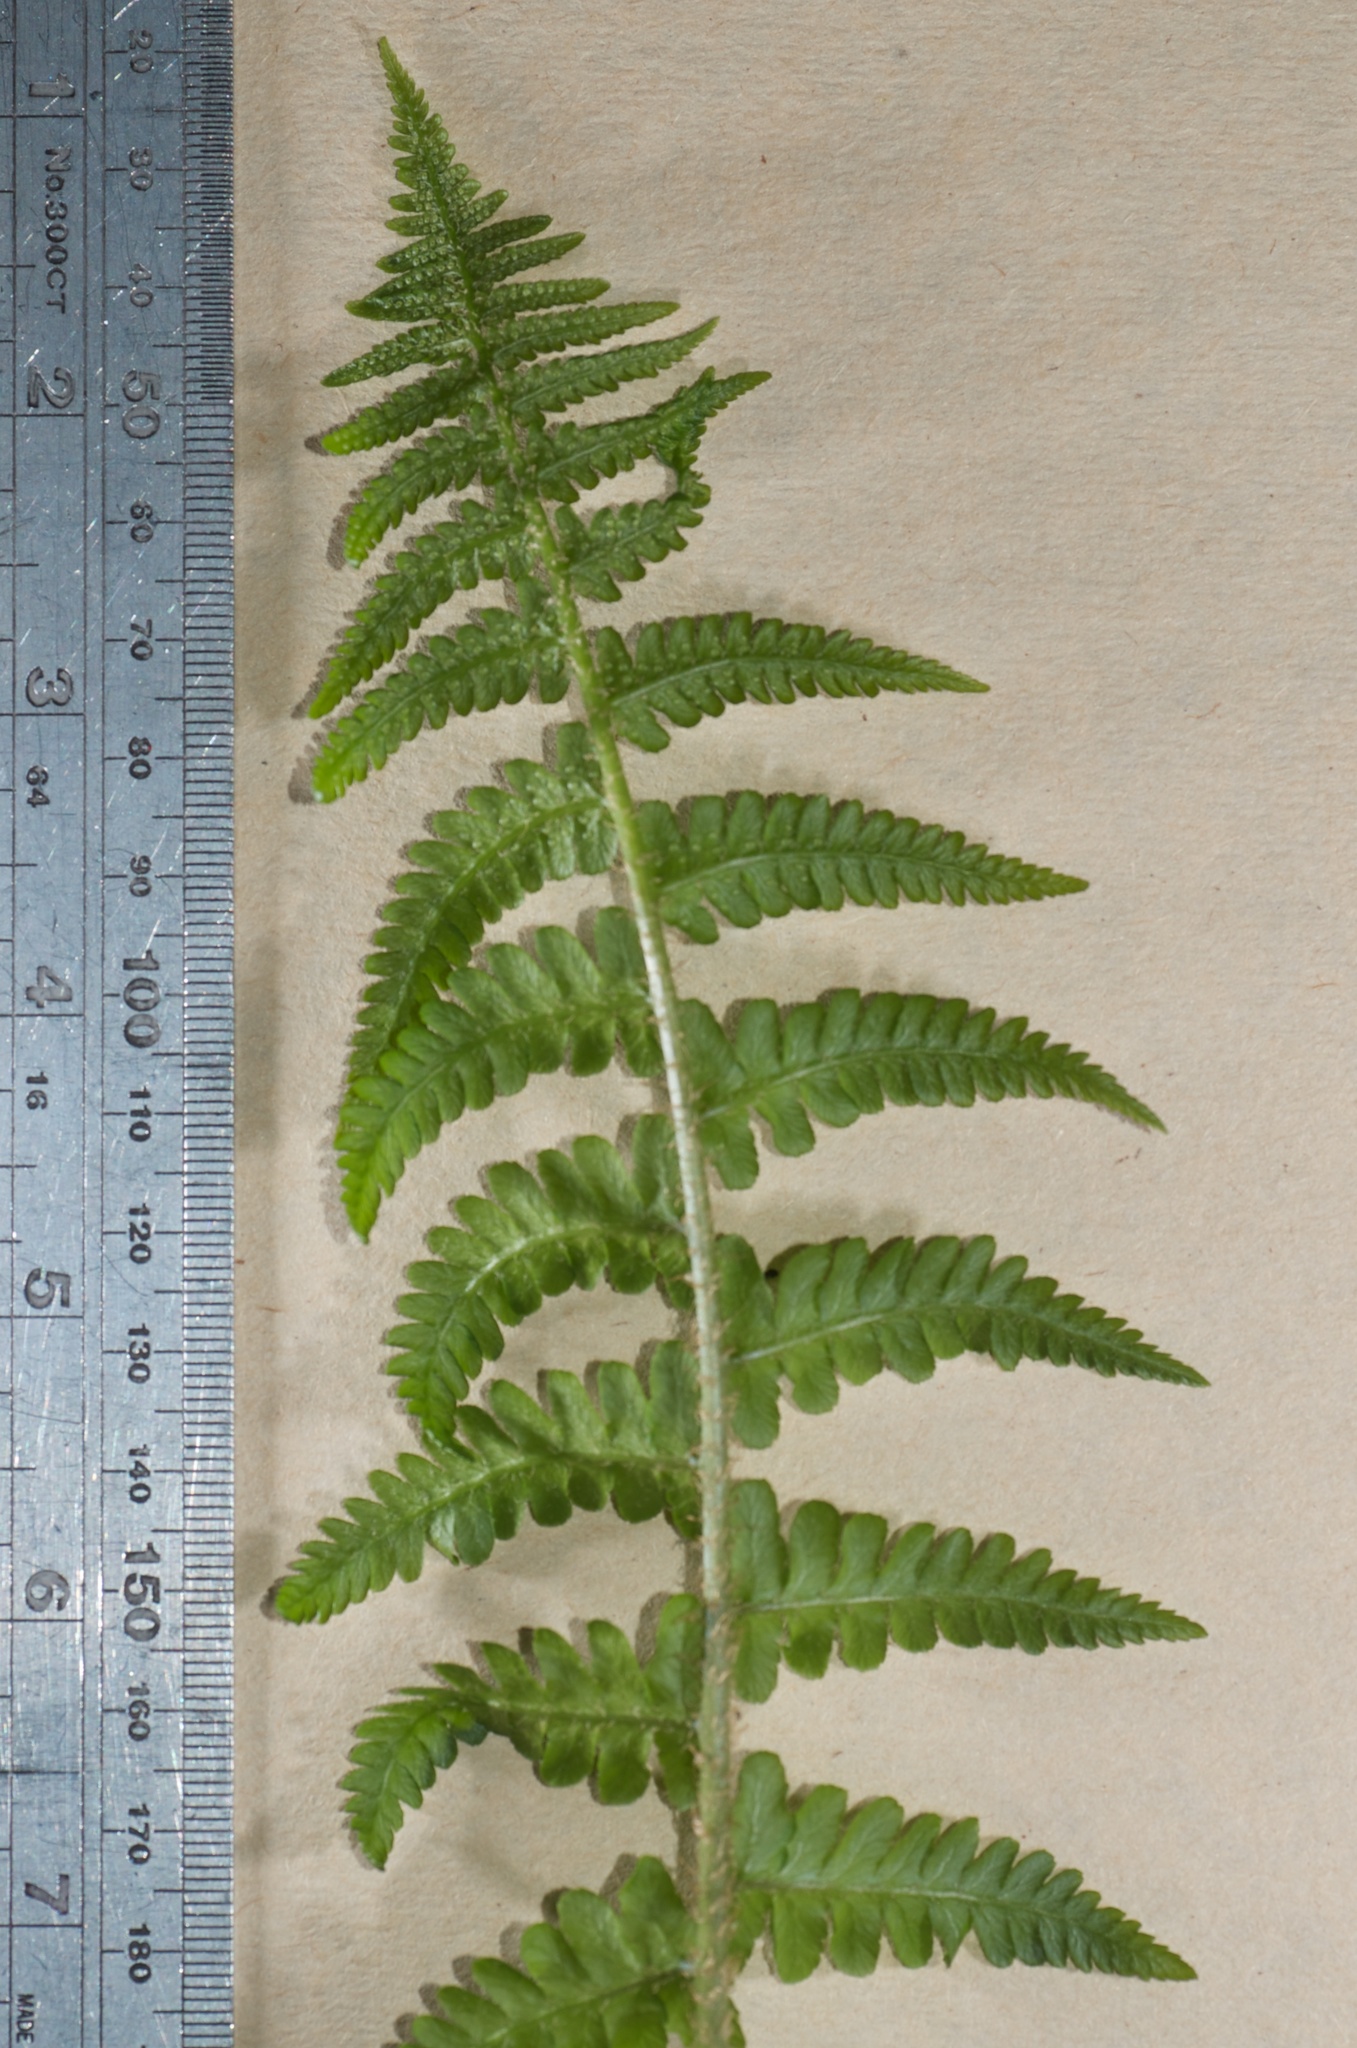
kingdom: Plantae
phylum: Tracheophyta
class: Polypodiopsida
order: Polypodiales
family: Dryopteridaceae
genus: Dryopteris
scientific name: Dryopteris filix-mas
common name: Male fern
